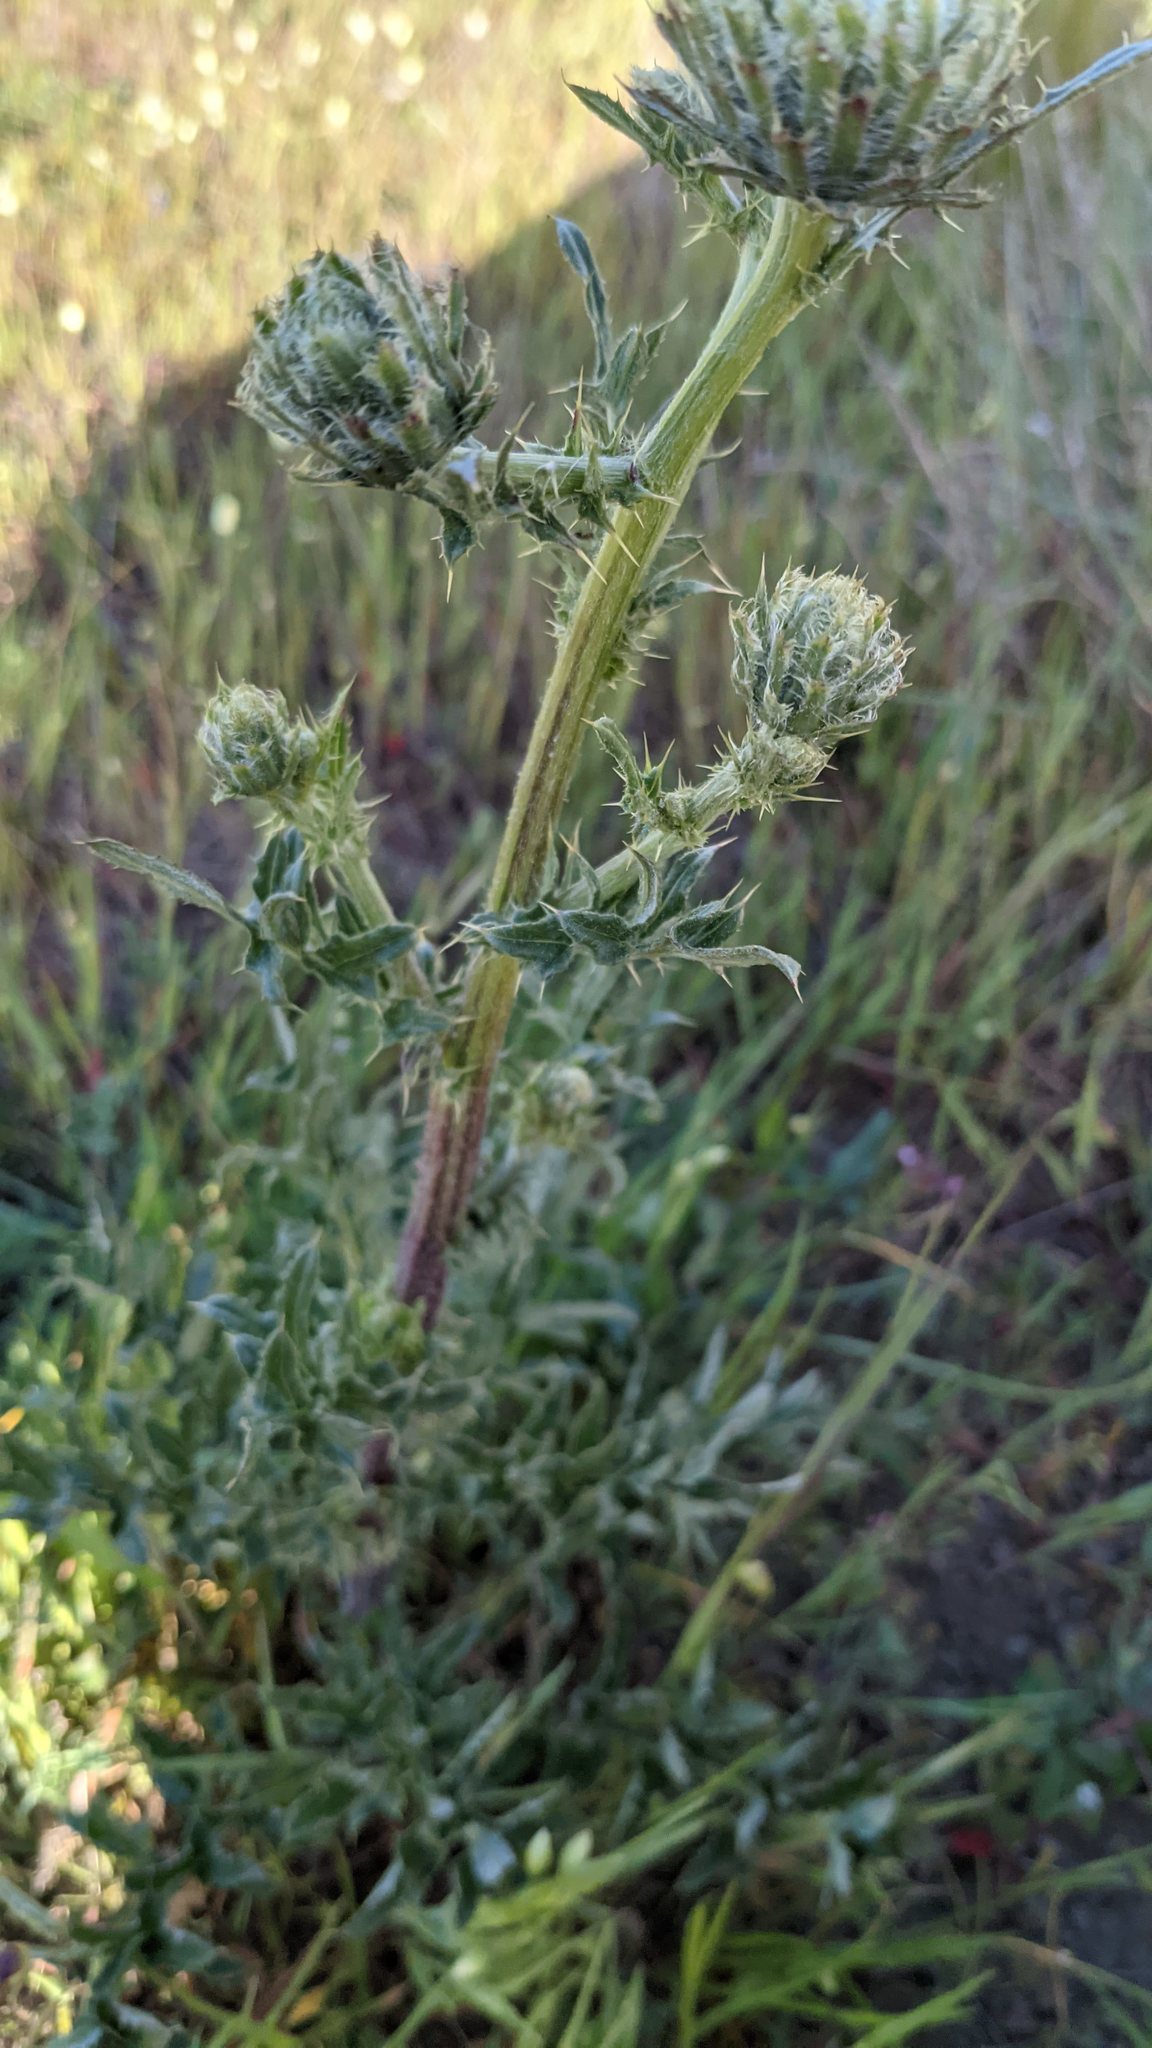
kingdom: Plantae
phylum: Tracheophyta
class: Magnoliopsida
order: Asterales
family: Asteraceae
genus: Cirsium
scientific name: Cirsium remotifolium
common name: Remote-leaf thistle
